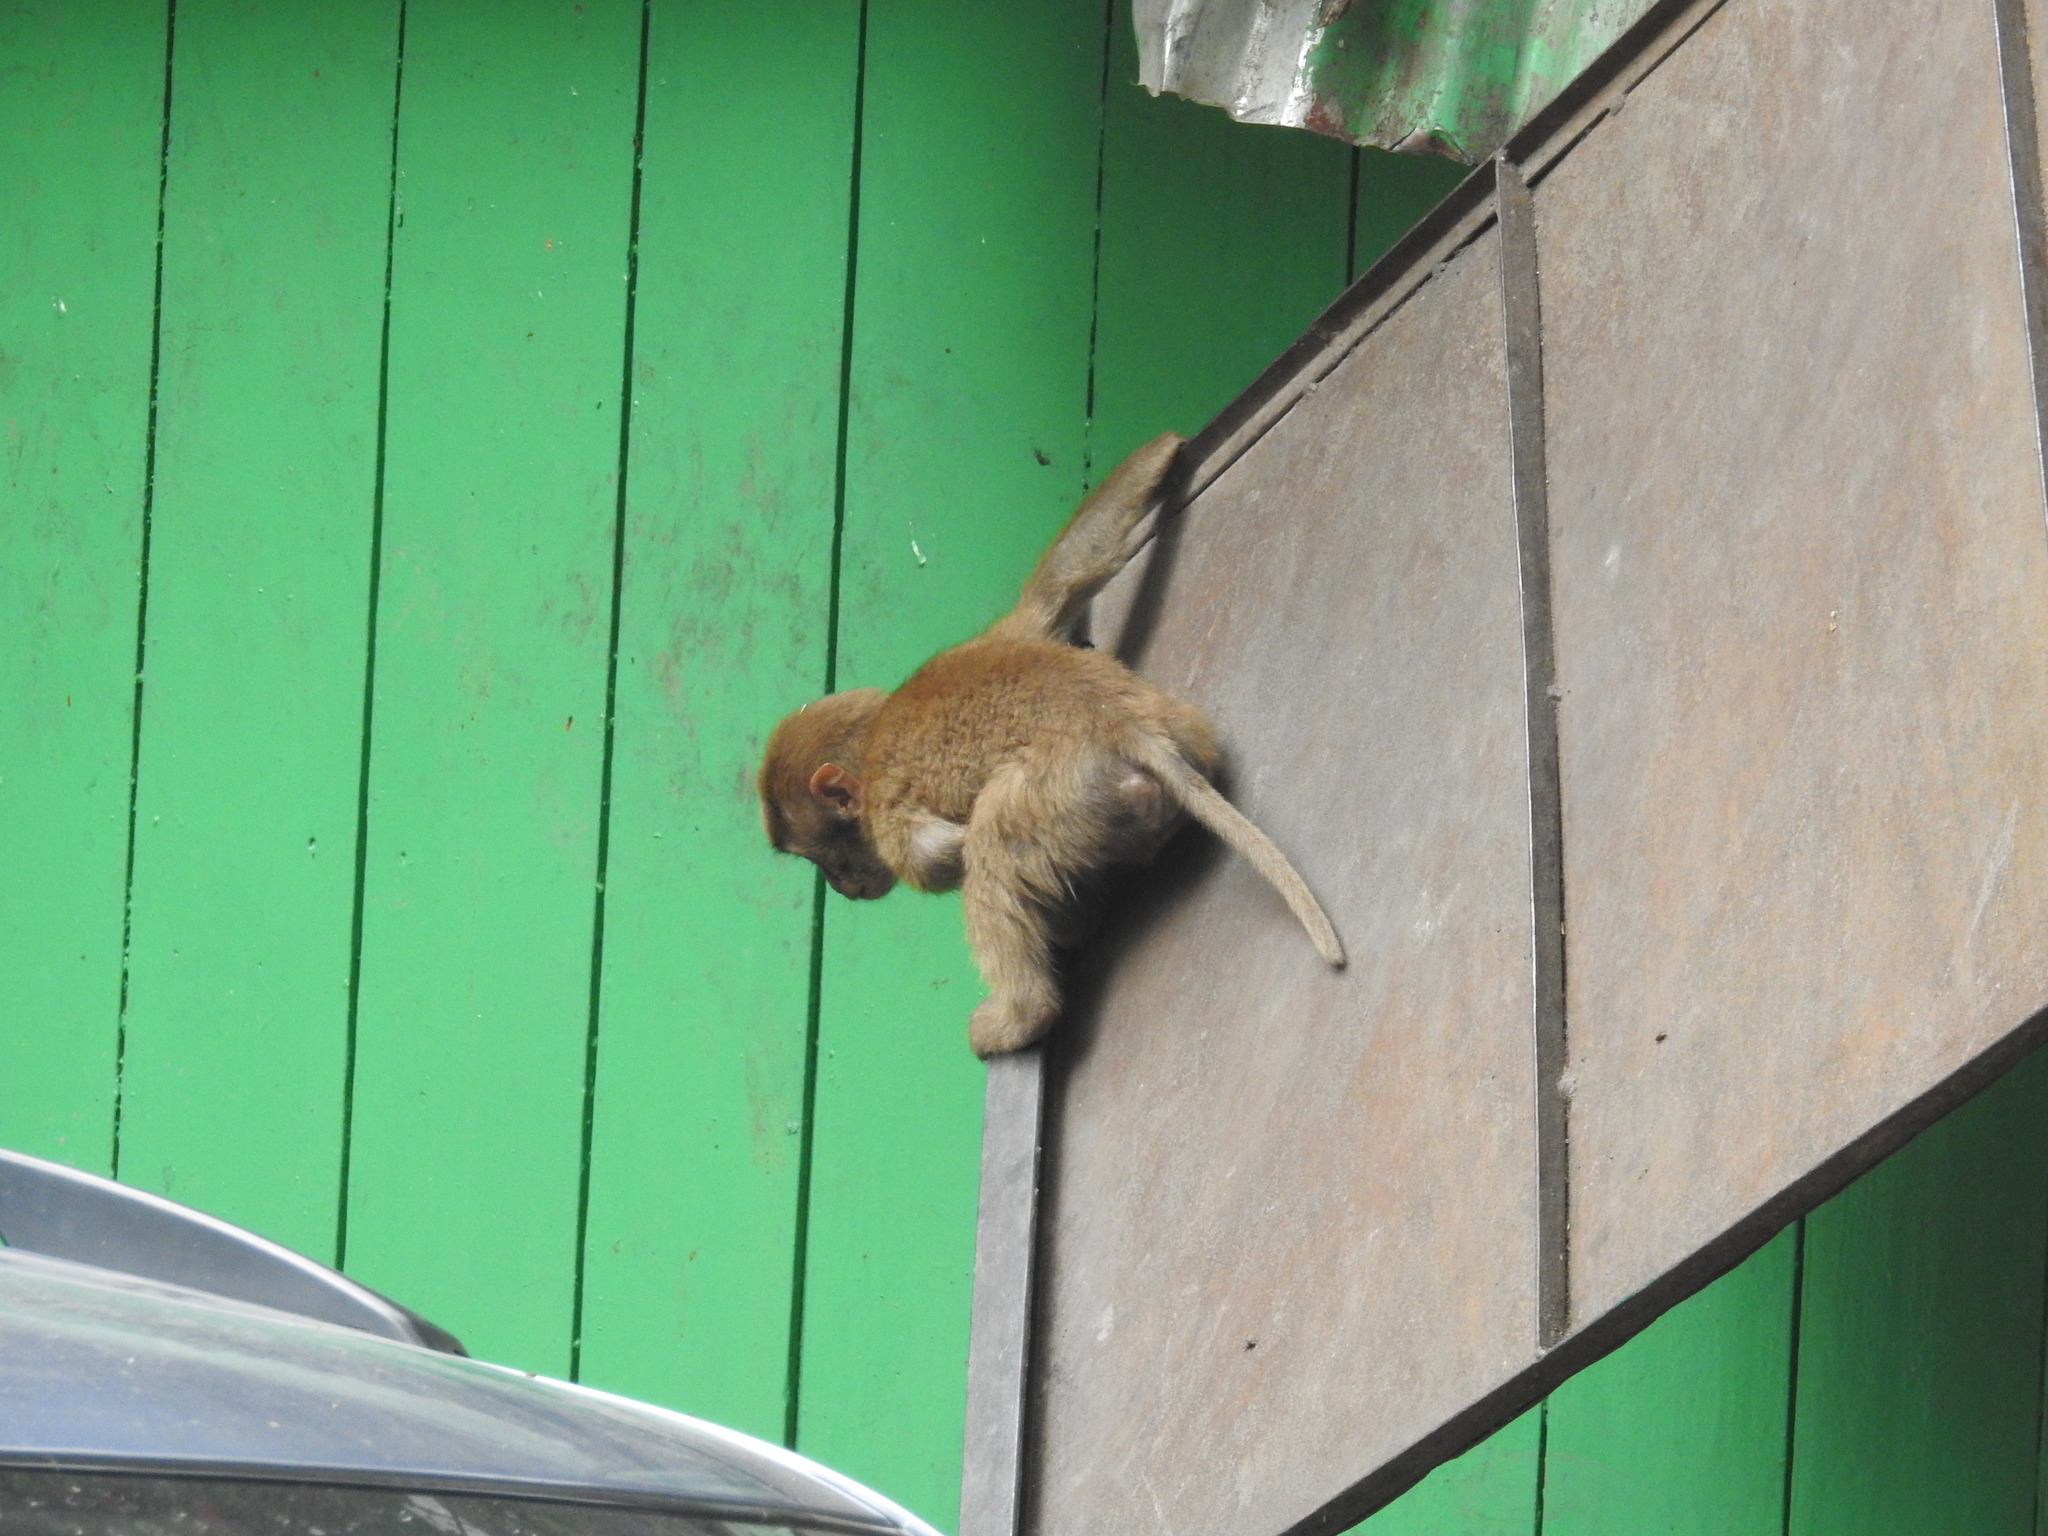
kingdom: Animalia
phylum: Chordata
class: Mammalia
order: Primates
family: Cercopithecidae
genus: Macaca
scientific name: Macaca assamensis
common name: Assam macaque
